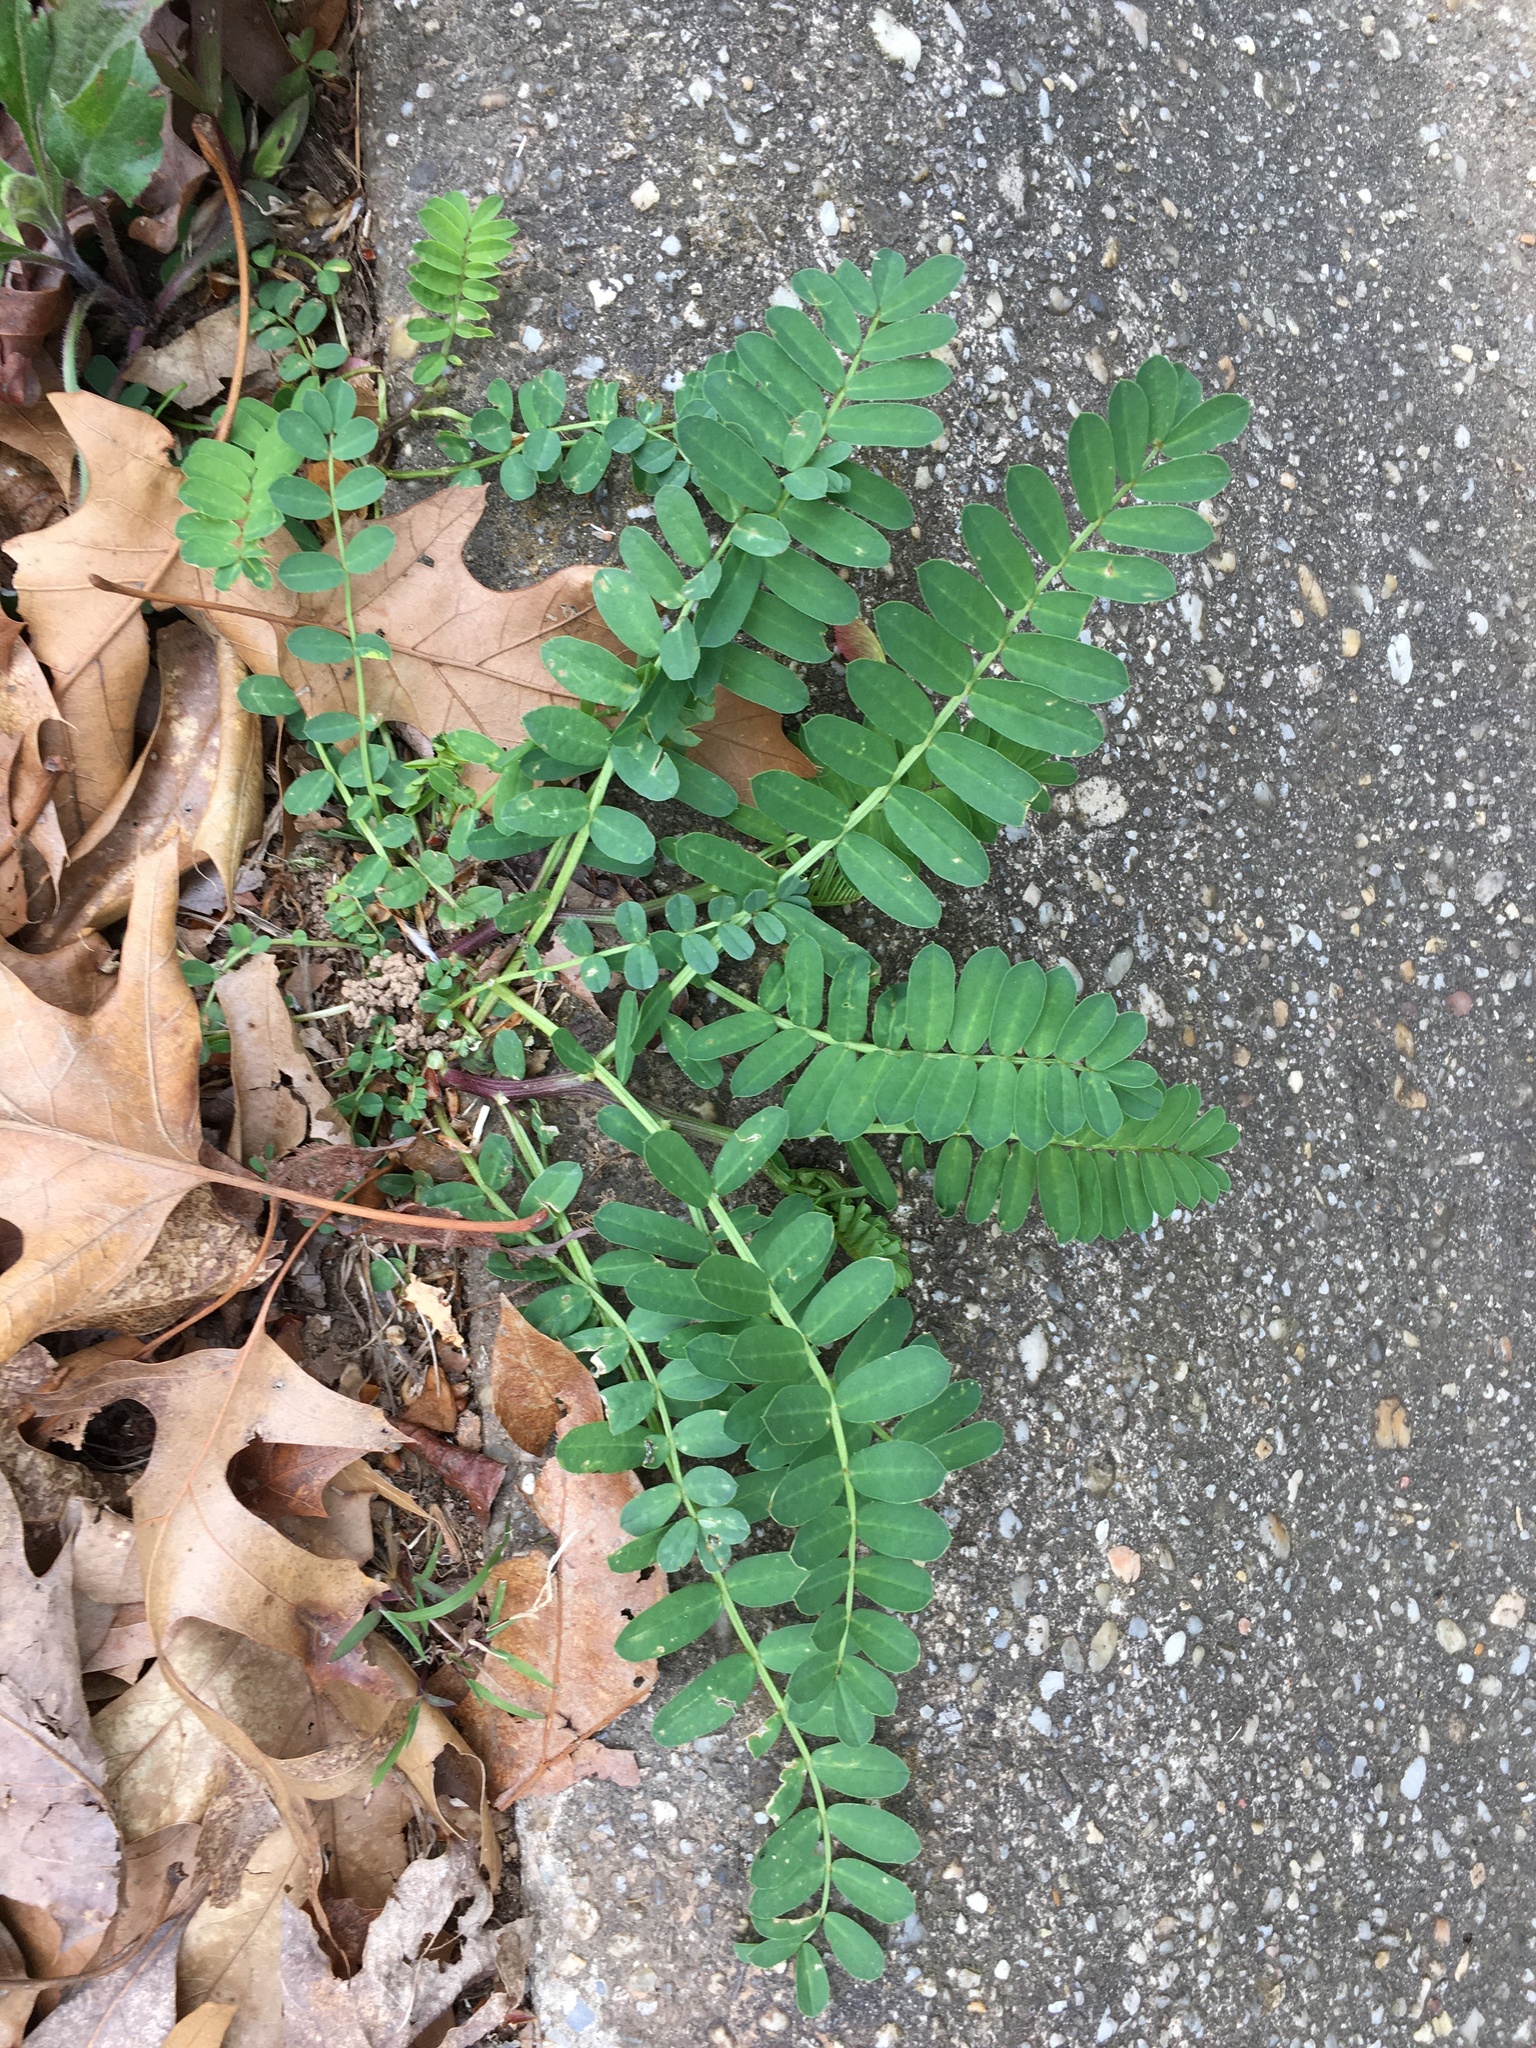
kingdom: Plantae
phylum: Tracheophyta
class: Magnoliopsida
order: Fabales
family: Fabaceae
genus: Coronilla
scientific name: Coronilla varia
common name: Crownvetch
